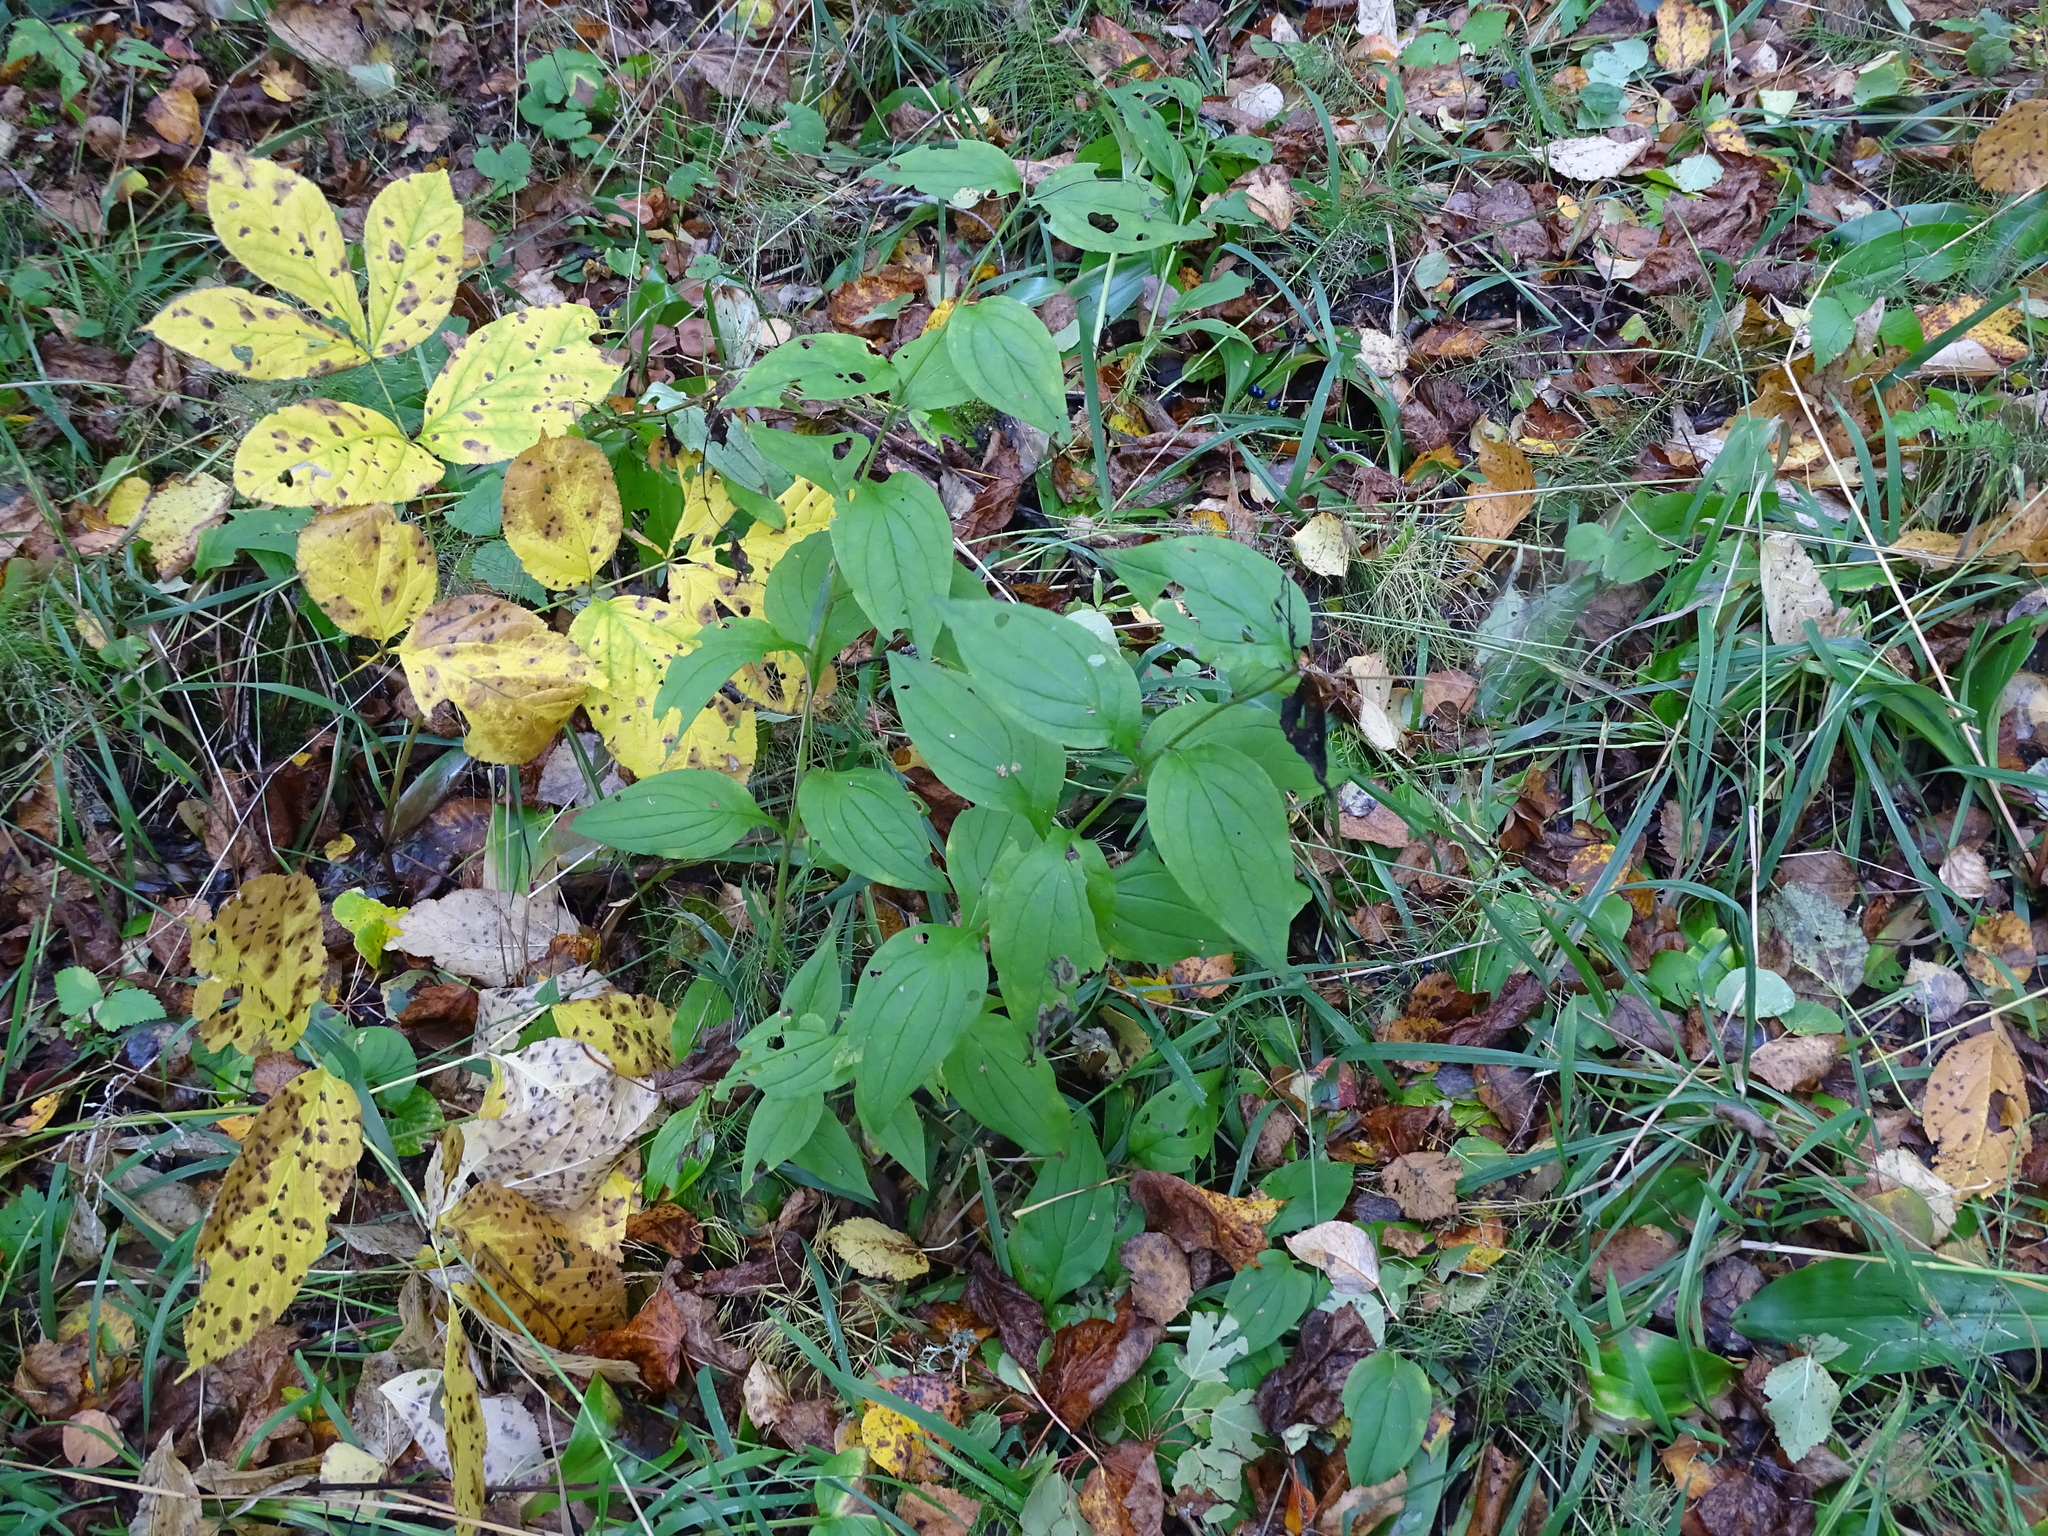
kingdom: Plantae
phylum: Tracheophyta
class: Magnoliopsida
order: Boraginales
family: Boraginaceae
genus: Mertensia
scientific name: Mertensia paniculata
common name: Panicled bluebells
